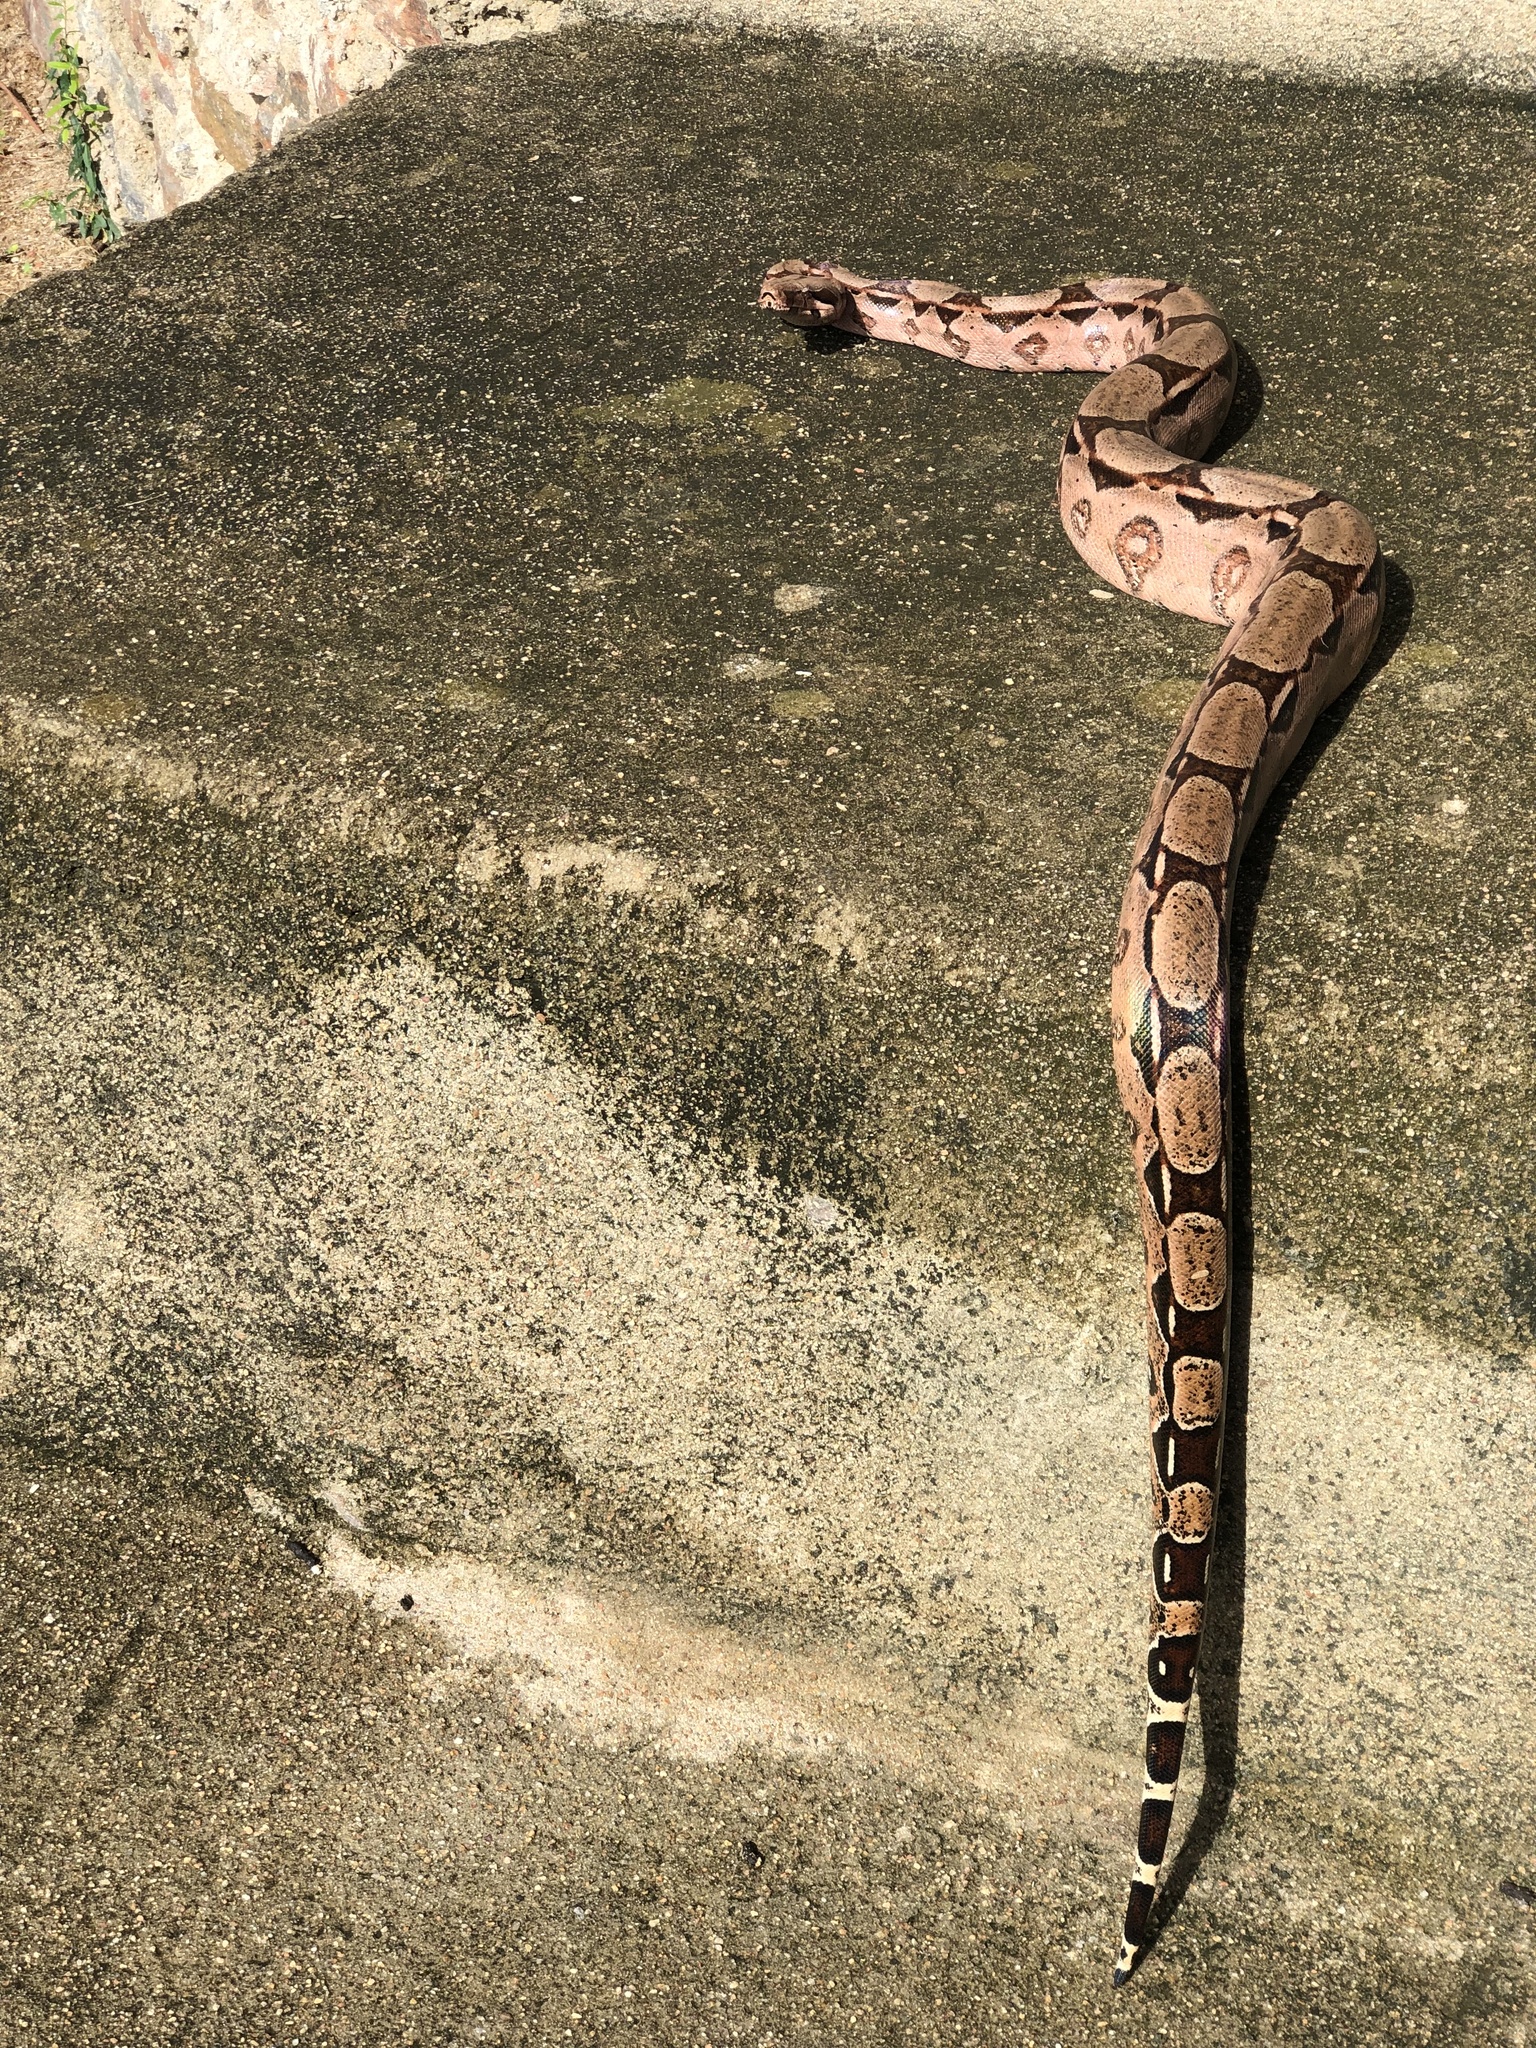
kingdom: Animalia
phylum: Chordata
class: Squamata
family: Boidae
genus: Boa
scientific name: Boa constrictor
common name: Boa constrictor
